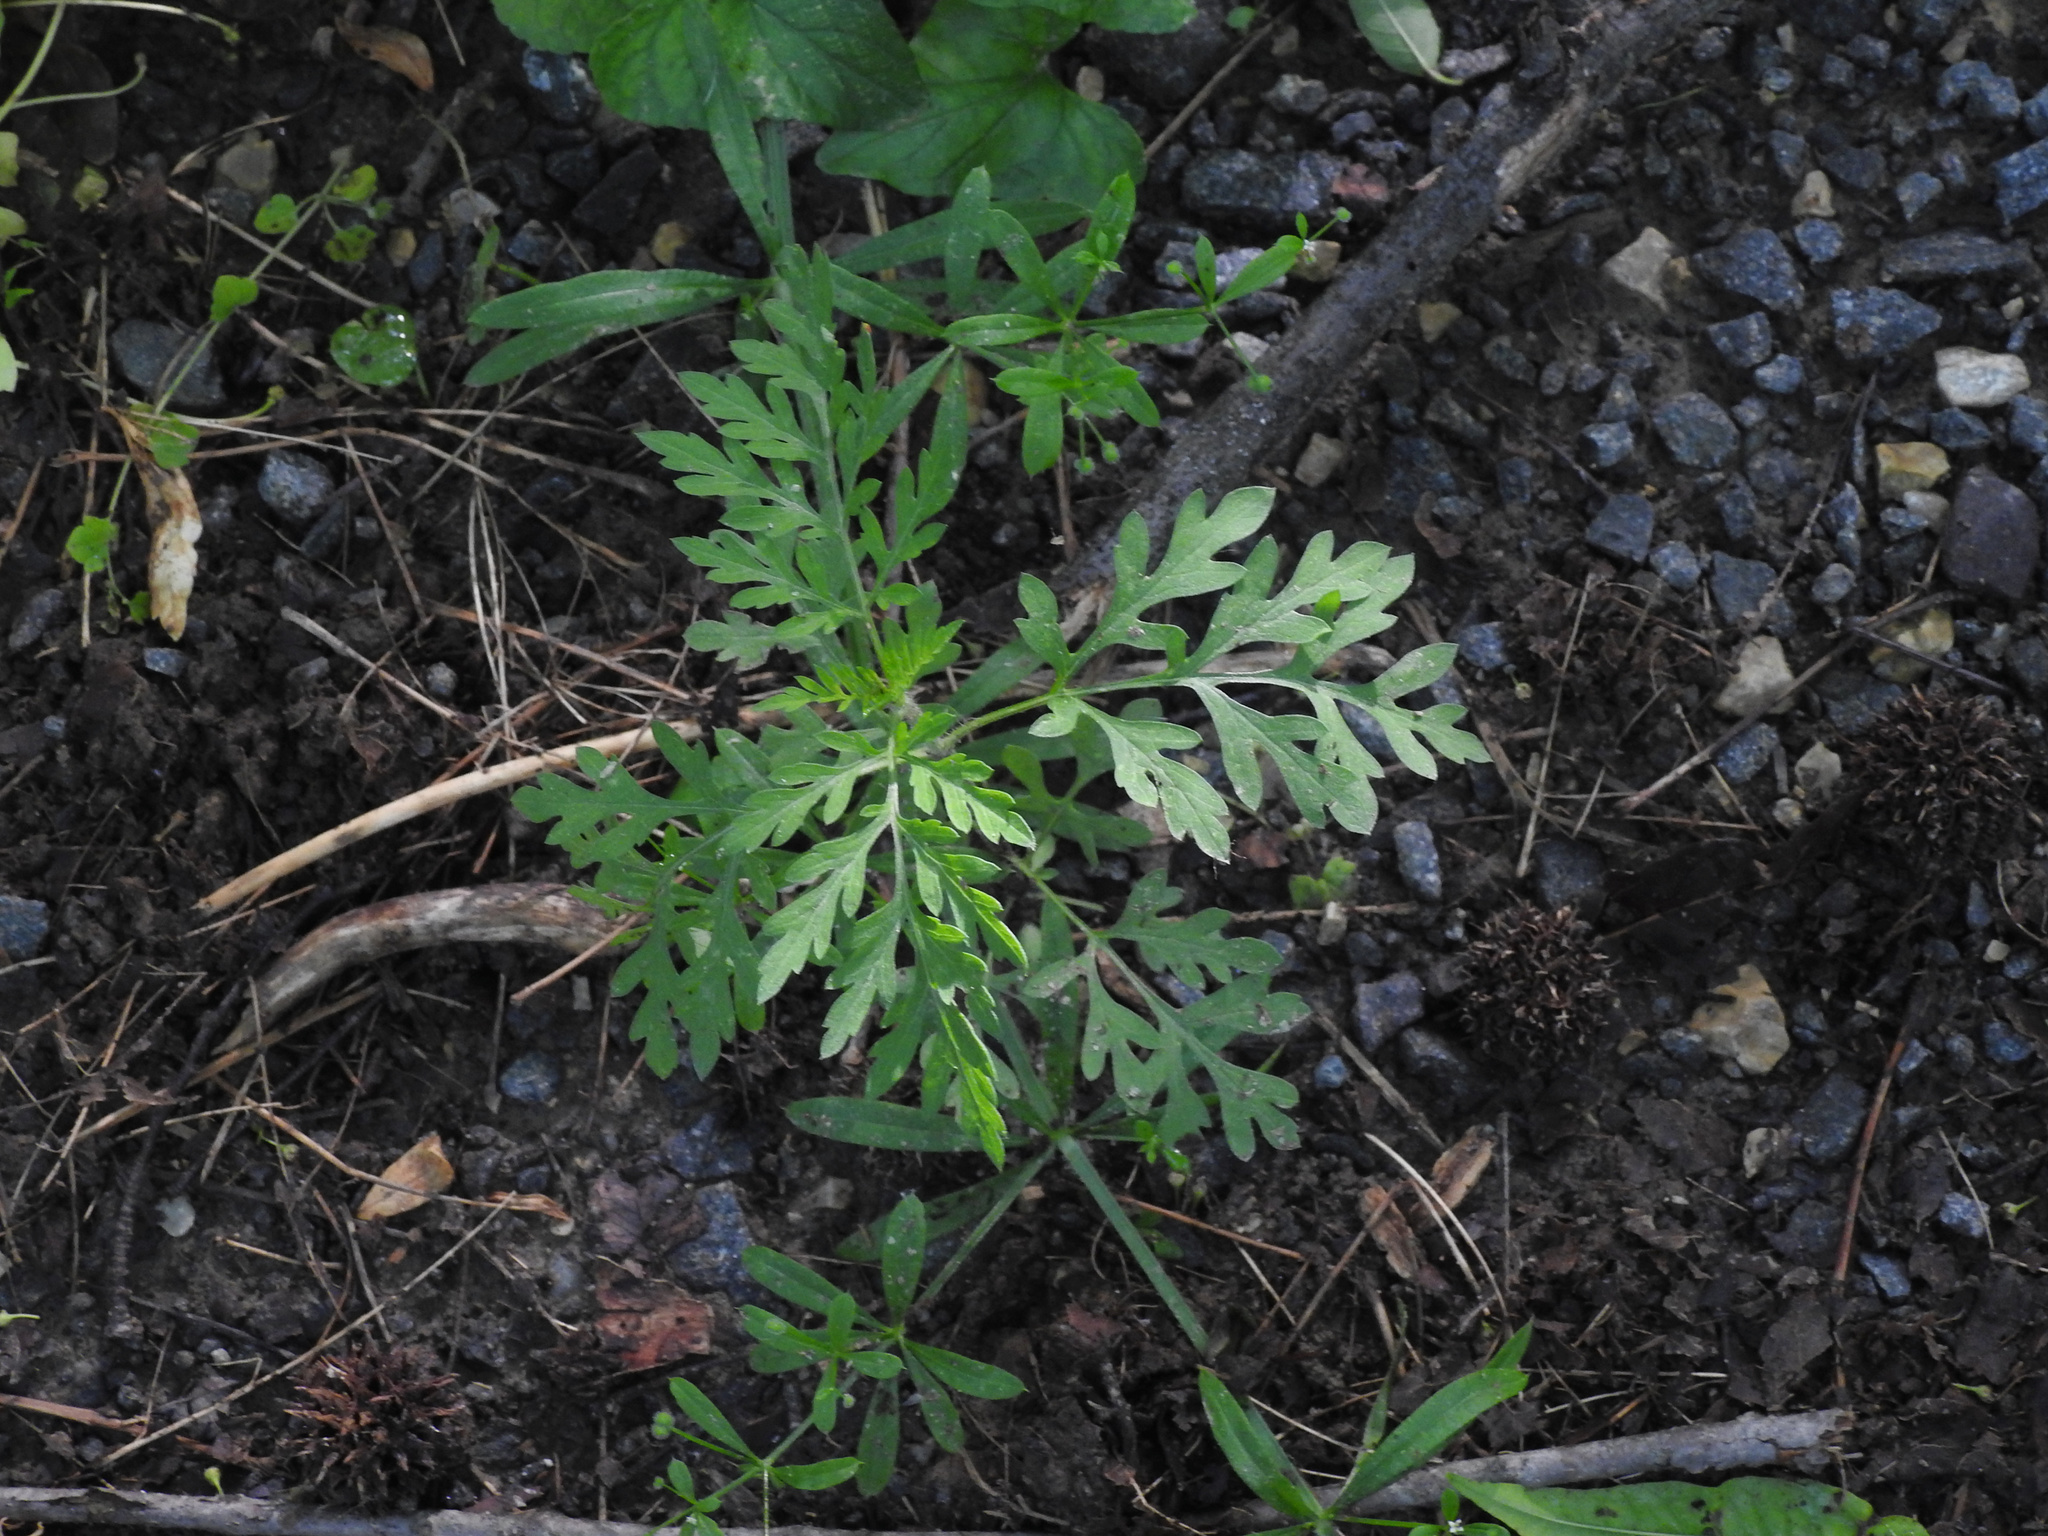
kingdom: Plantae
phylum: Tracheophyta
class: Magnoliopsida
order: Asterales
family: Asteraceae
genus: Ambrosia
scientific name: Ambrosia artemisiifolia
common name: Annual ragweed
